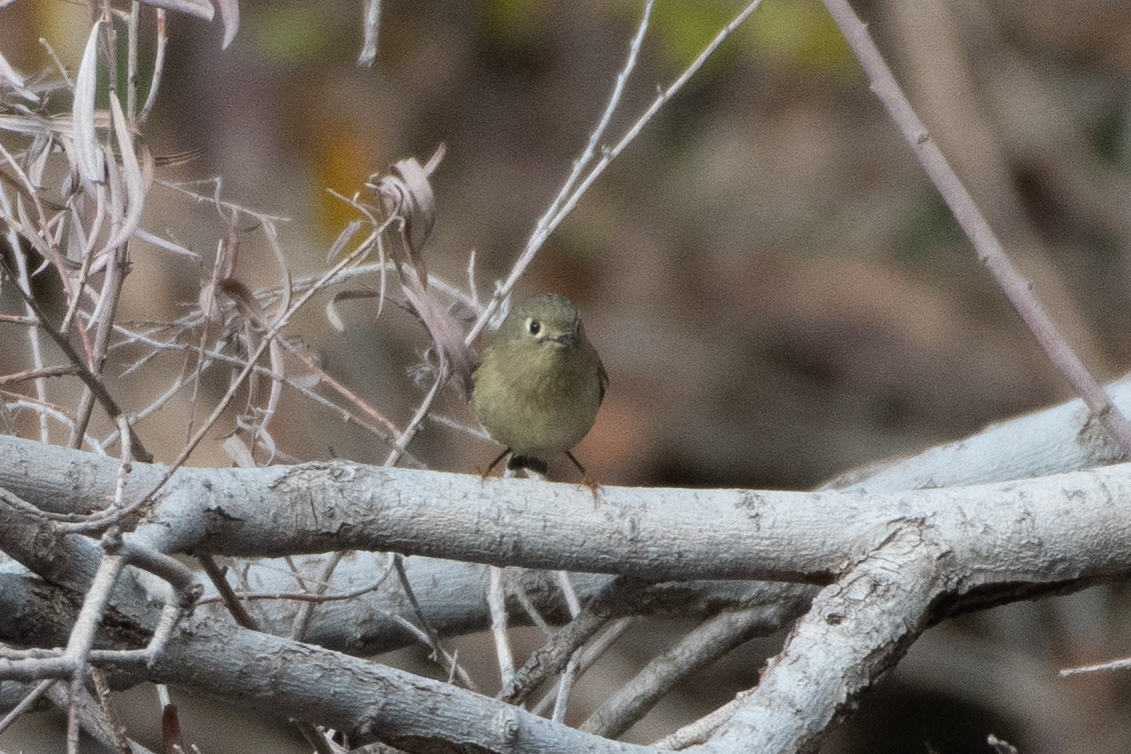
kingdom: Animalia
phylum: Chordata
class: Aves
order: Passeriformes
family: Regulidae
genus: Regulus
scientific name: Regulus calendula
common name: Ruby-crowned kinglet
